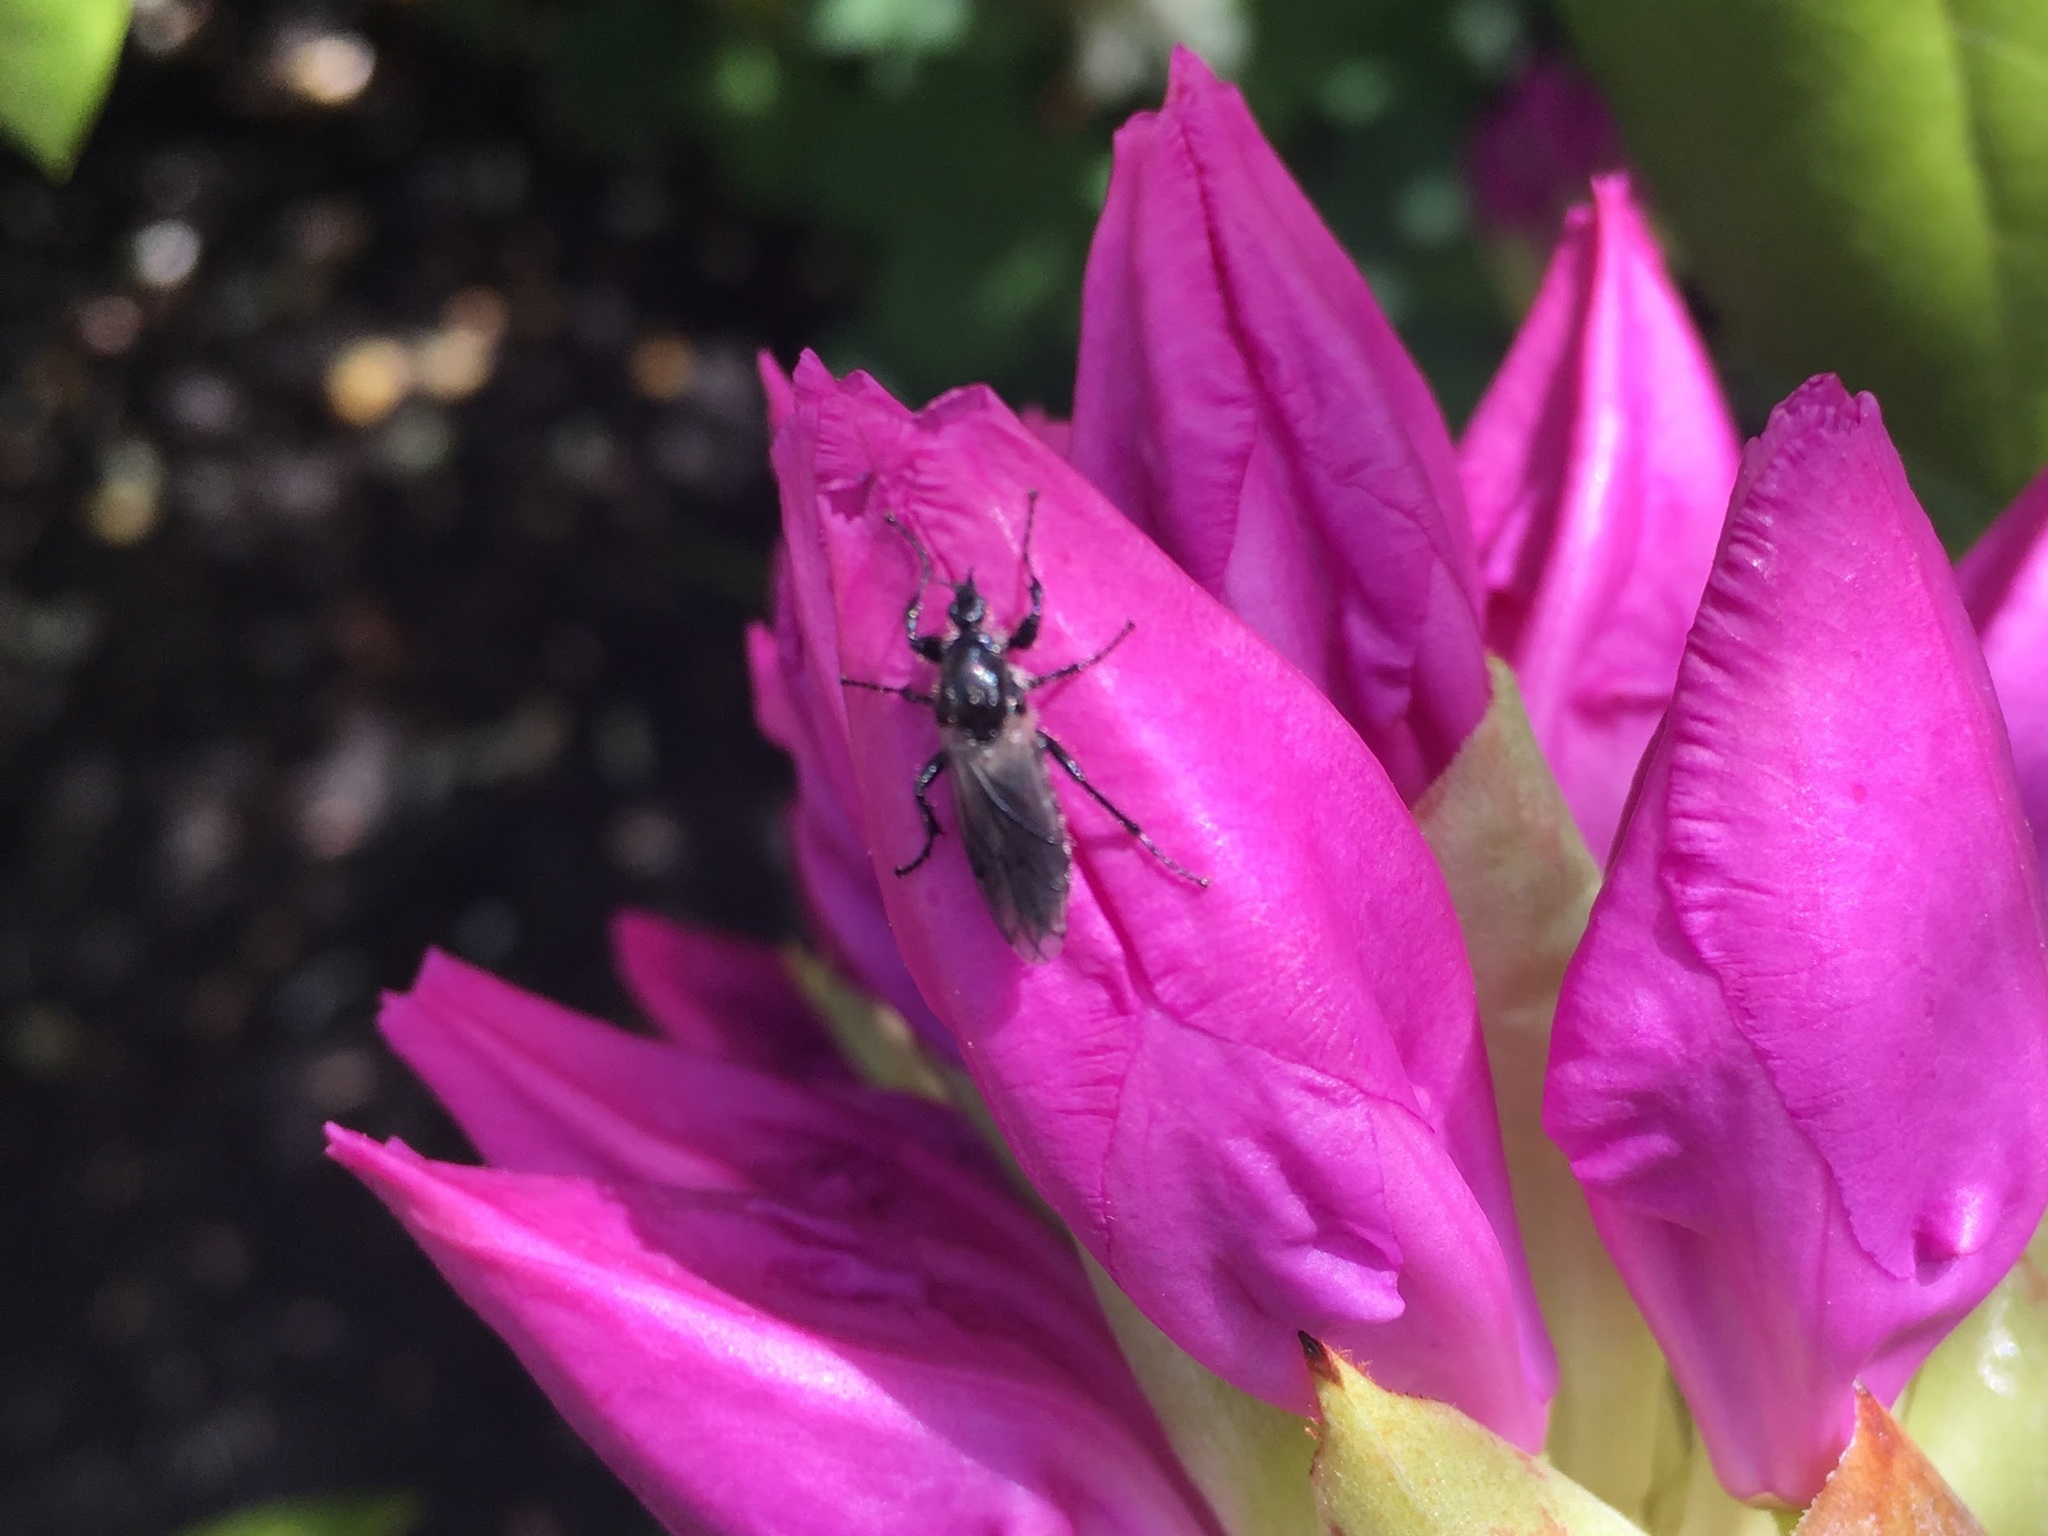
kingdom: Animalia
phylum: Arthropoda
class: Insecta
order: Diptera
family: Bibionidae
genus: Bibio
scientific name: Bibio albipennis
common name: White-winged march fly
